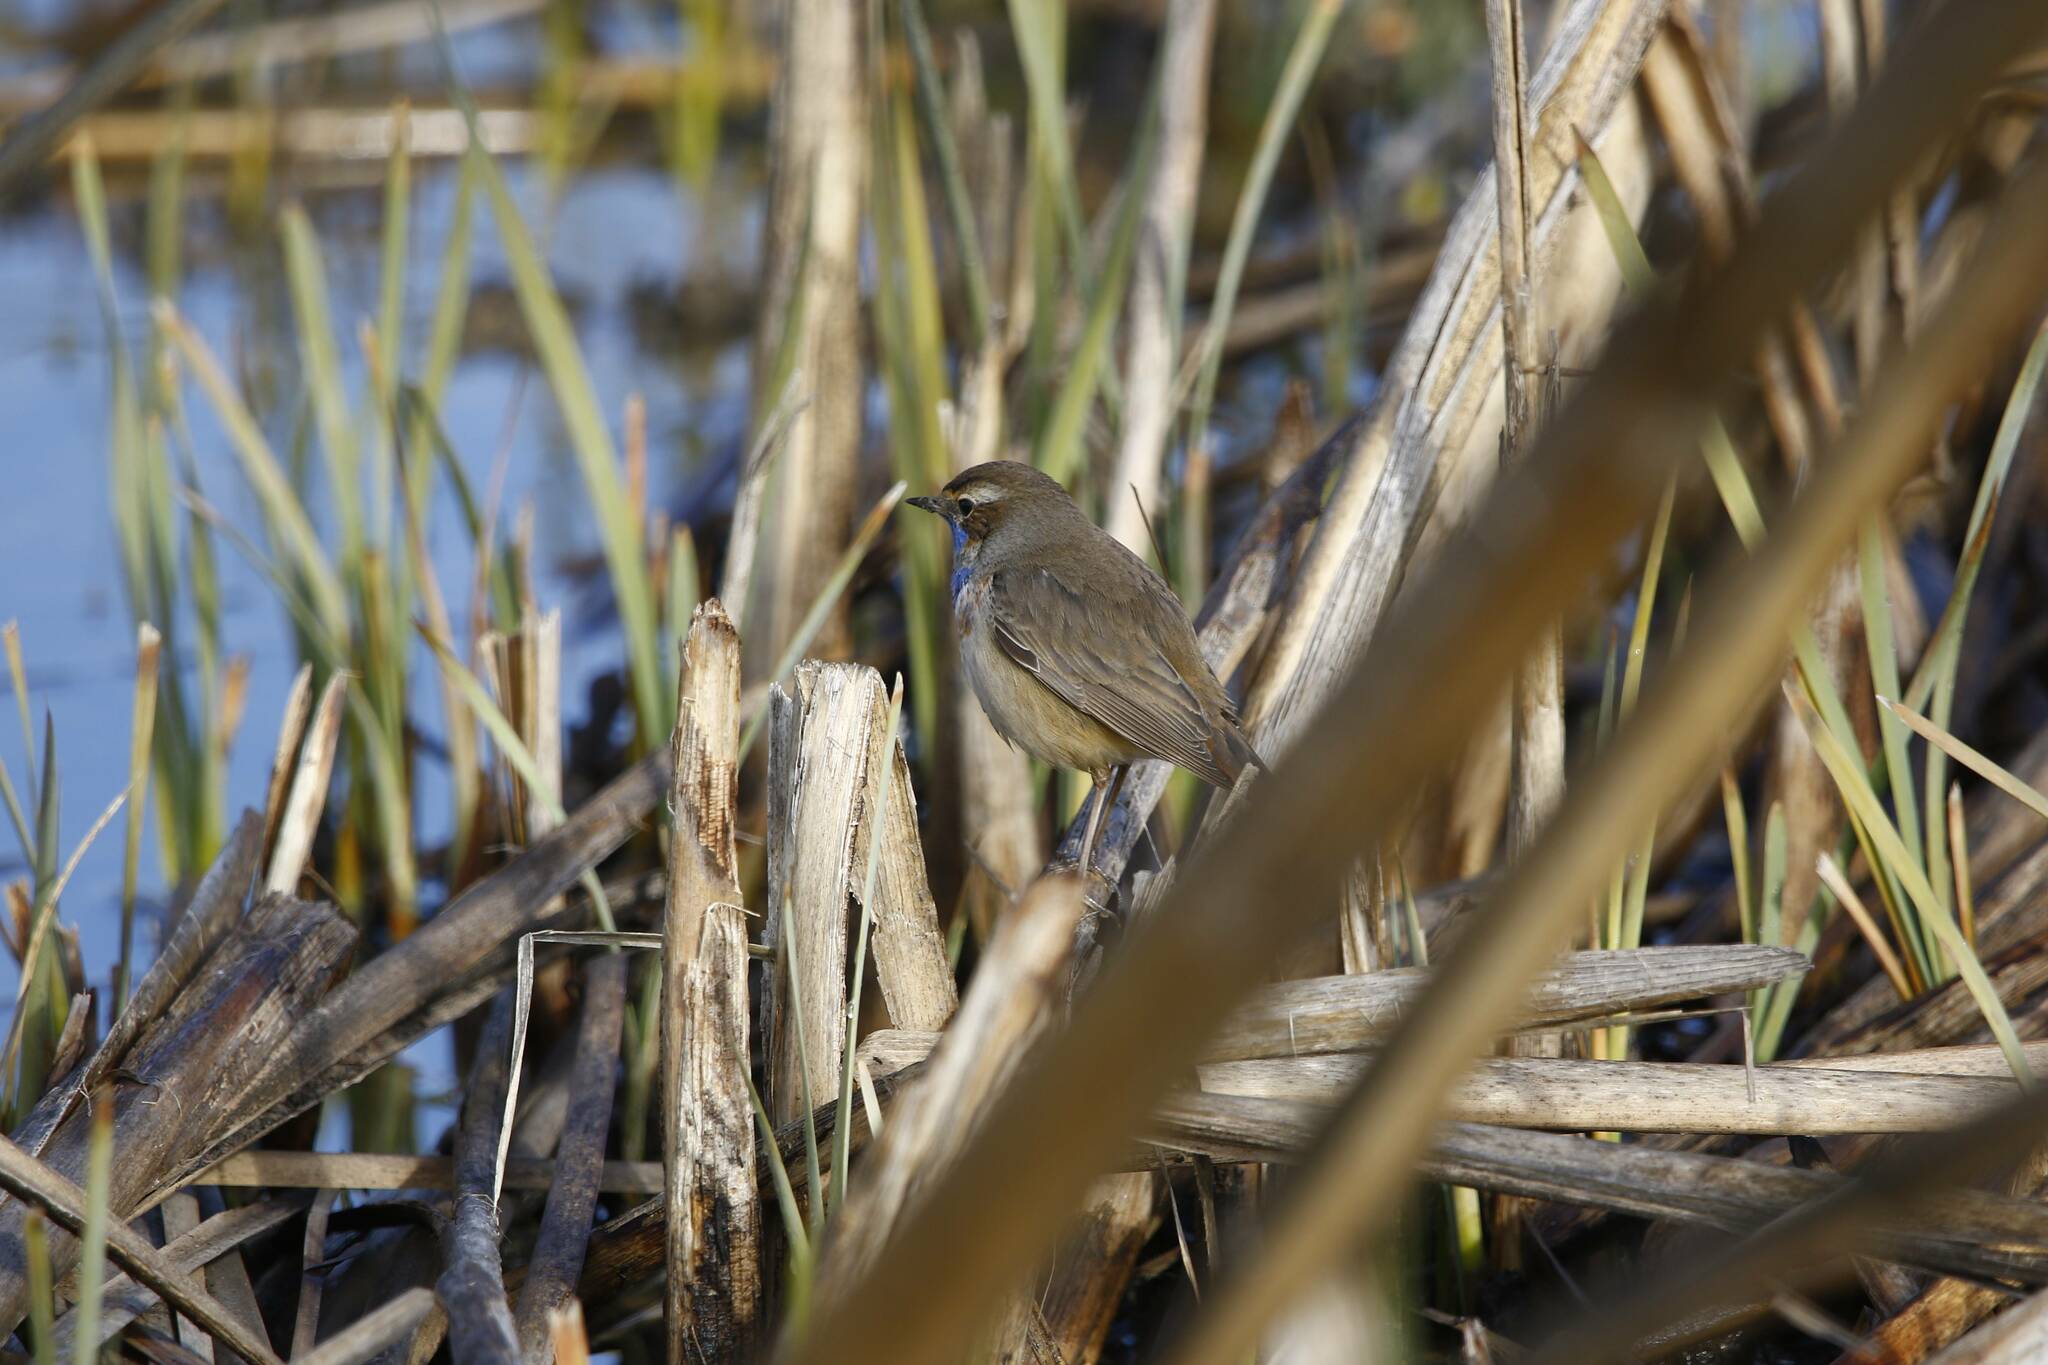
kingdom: Animalia
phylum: Chordata
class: Aves
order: Passeriformes
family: Muscicapidae
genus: Luscinia
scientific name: Luscinia svecica
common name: Bluethroat
